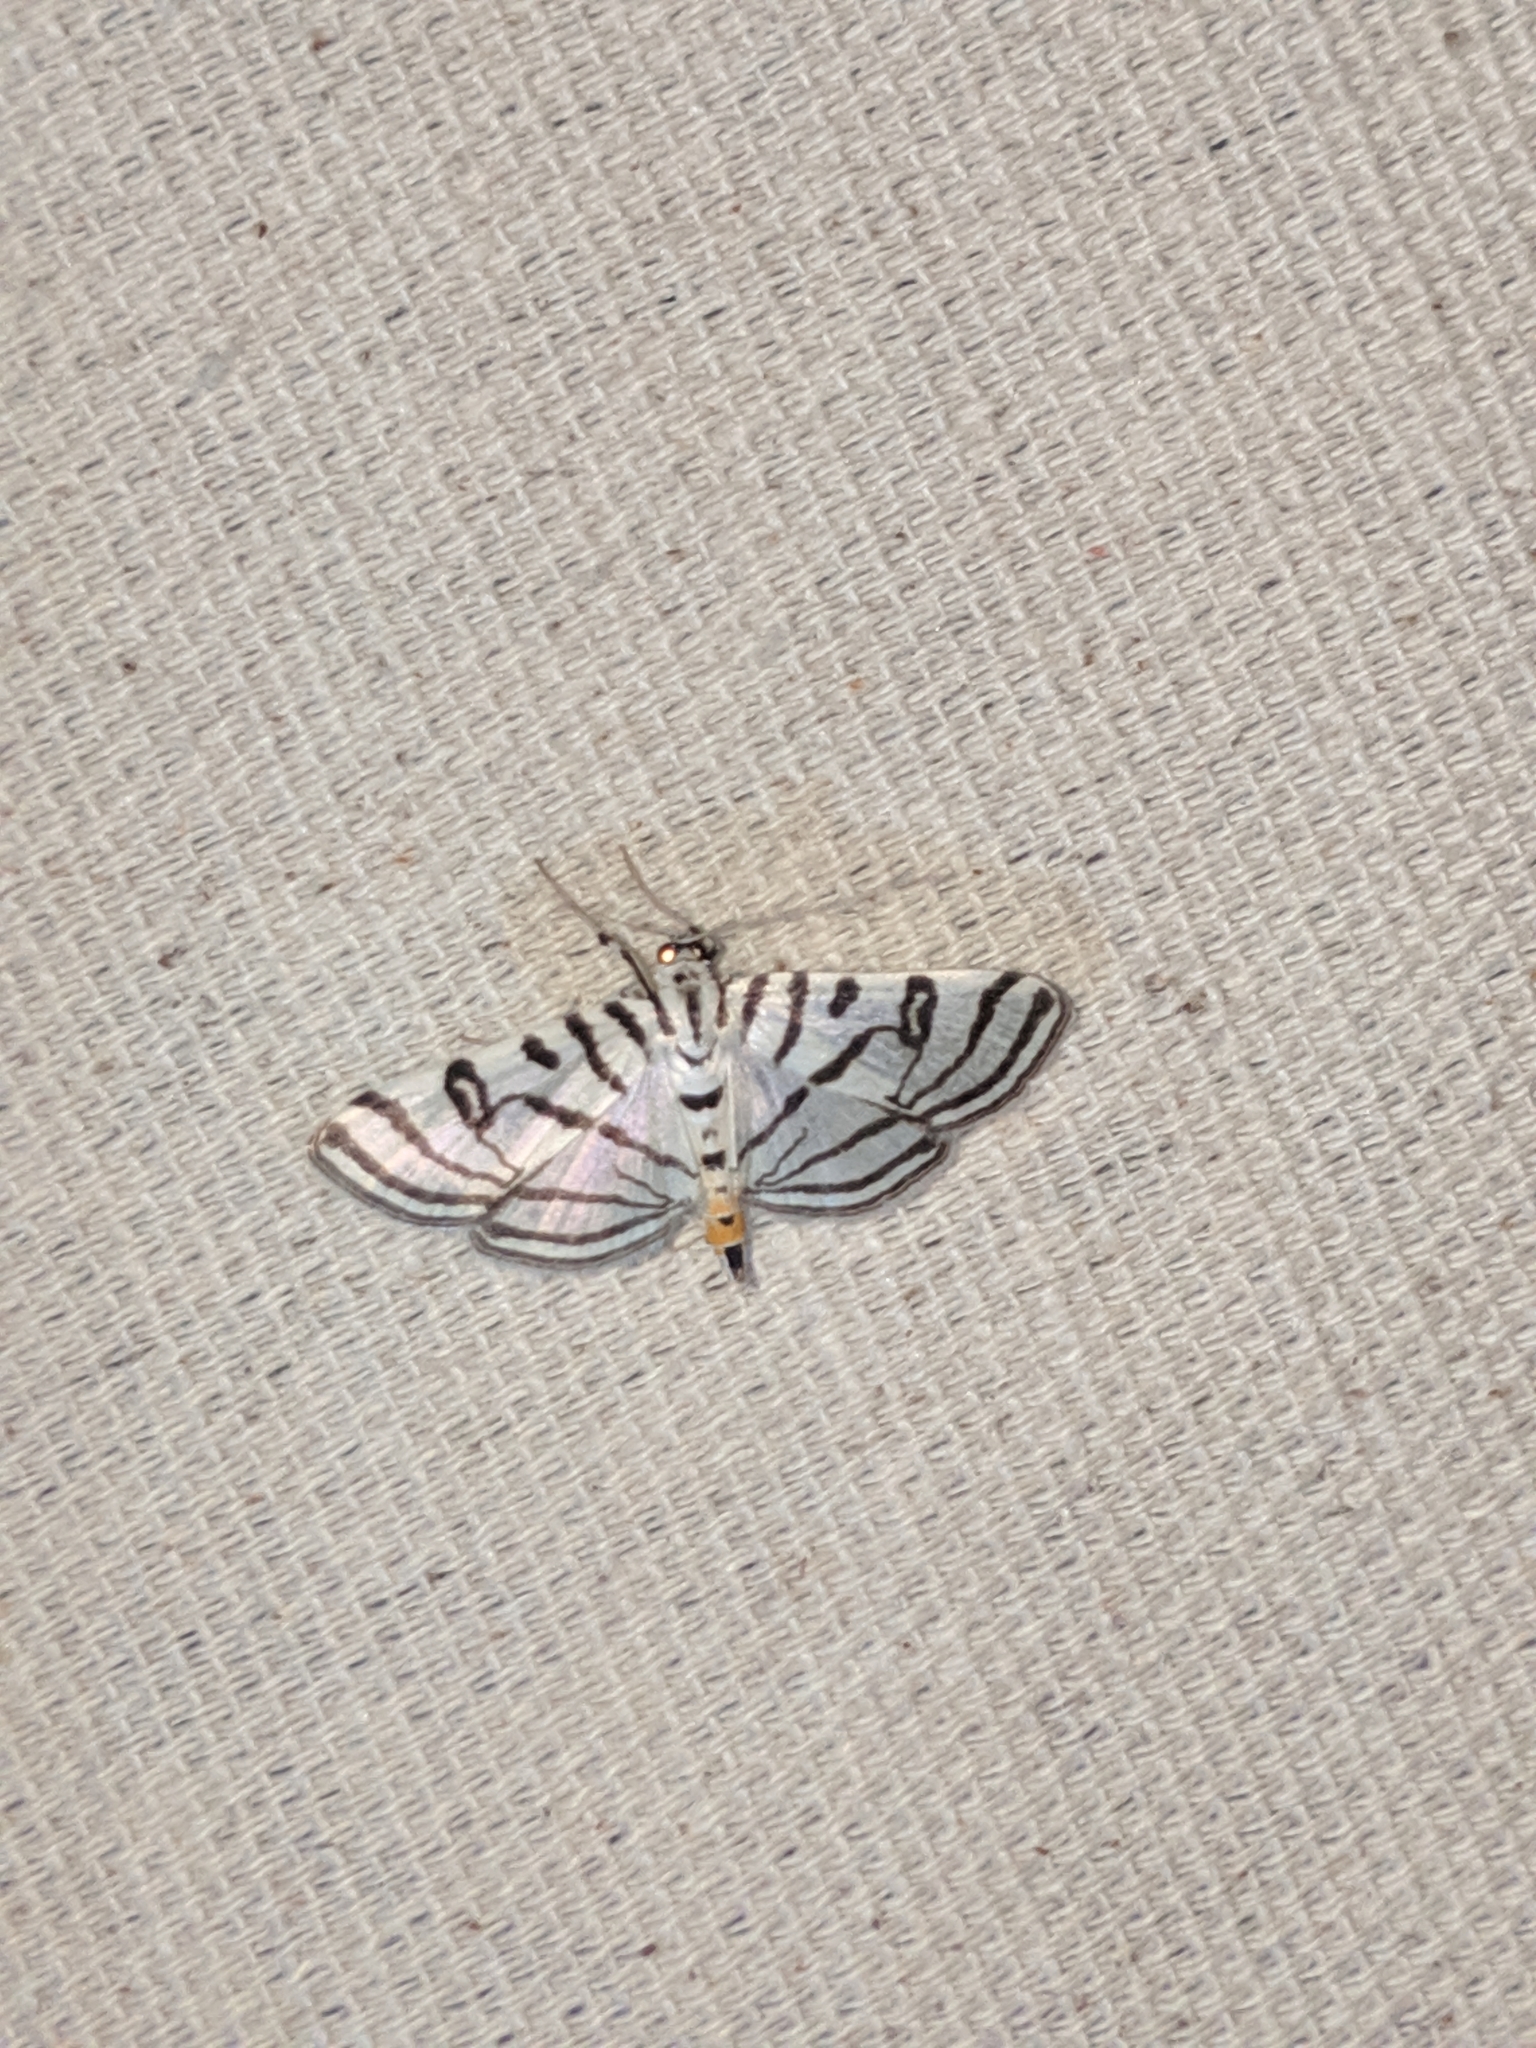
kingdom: Animalia
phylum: Arthropoda
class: Insecta
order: Lepidoptera
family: Crambidae
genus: Conchylodes
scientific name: Conchylodes ovulalis
